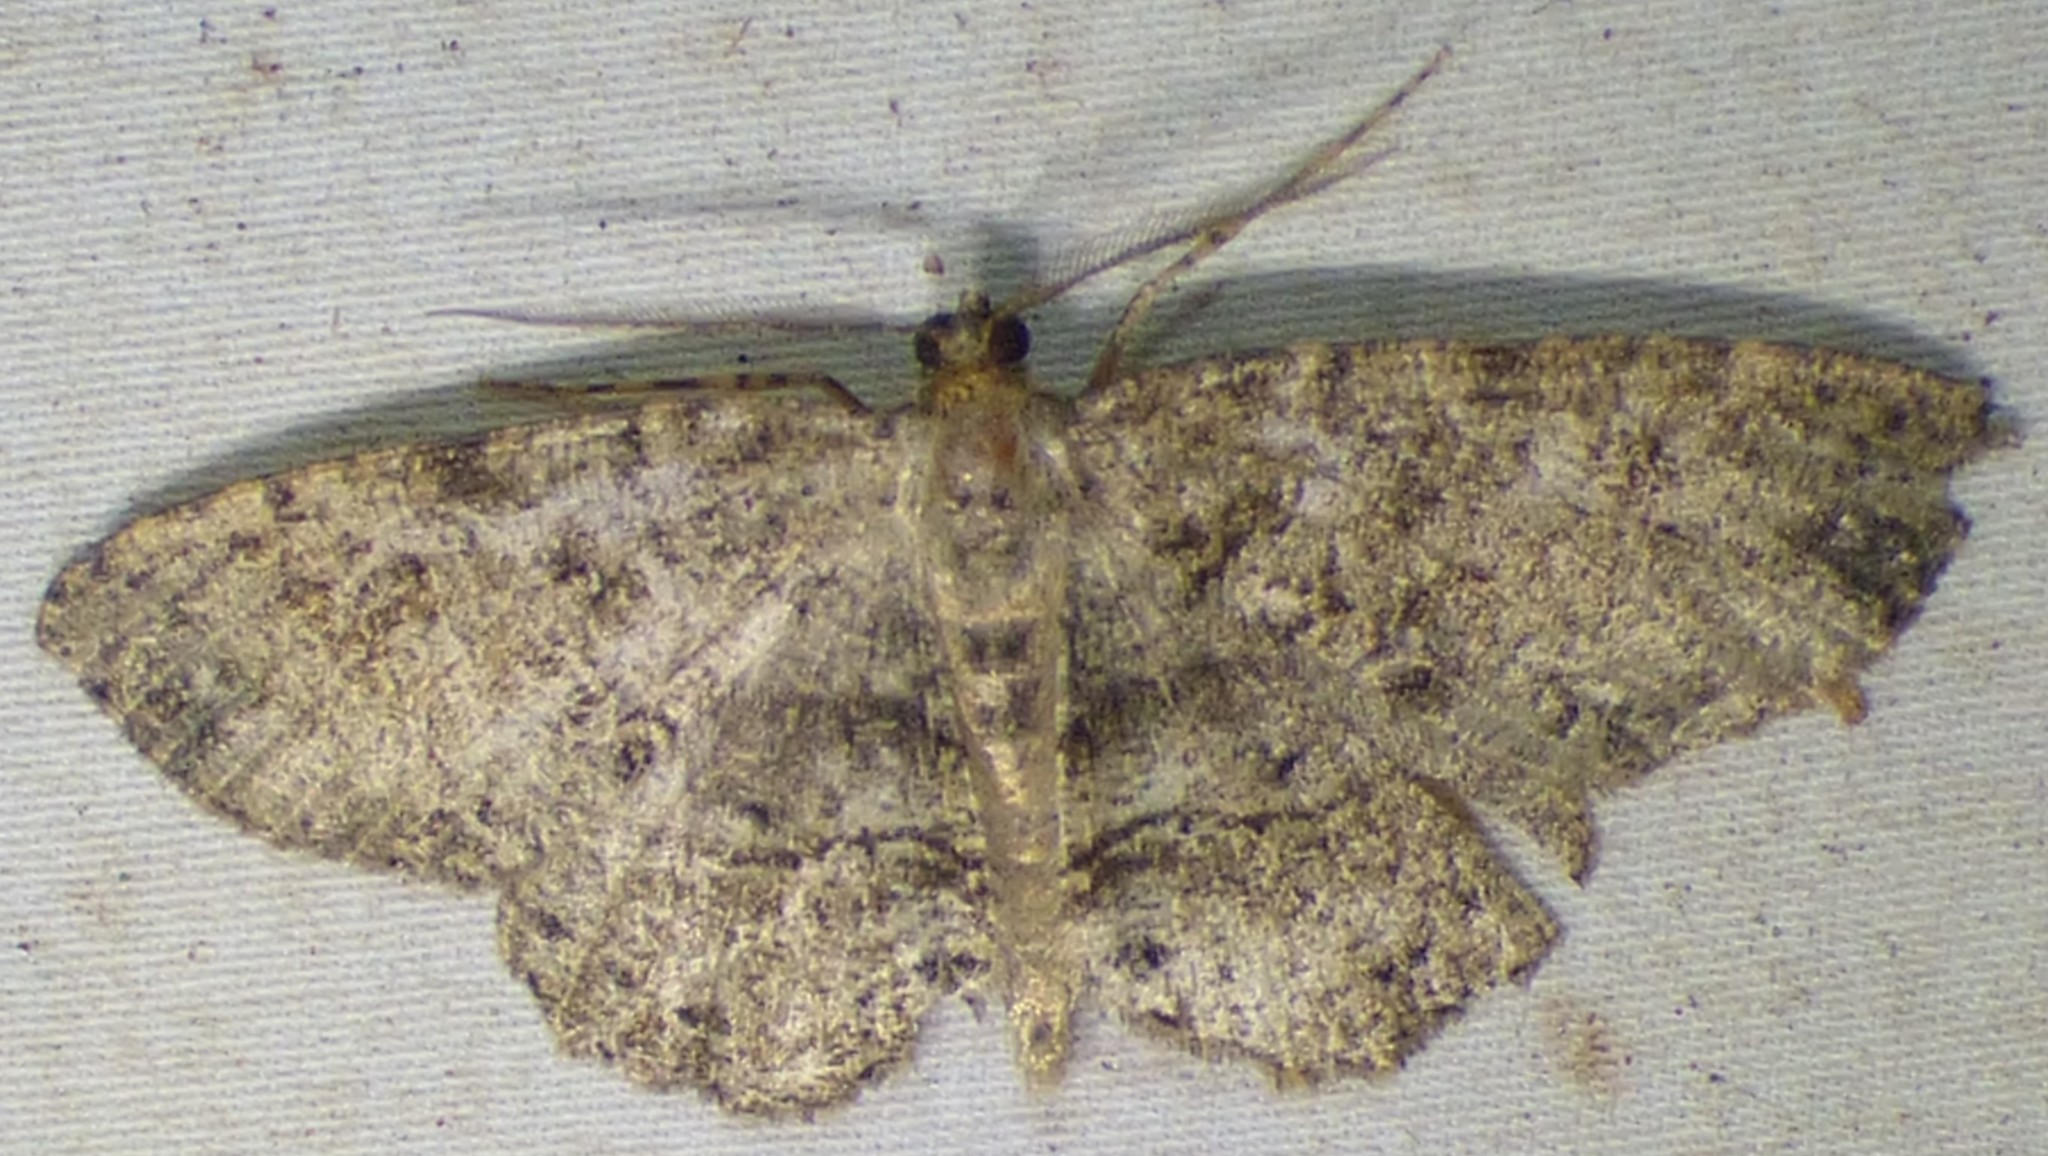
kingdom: Animalia
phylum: Arthropoda
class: Insecta
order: Lepidoptera
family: Geometridae
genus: Melanolophia
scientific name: Melanolophia canadaria
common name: Canadian melanolophia
